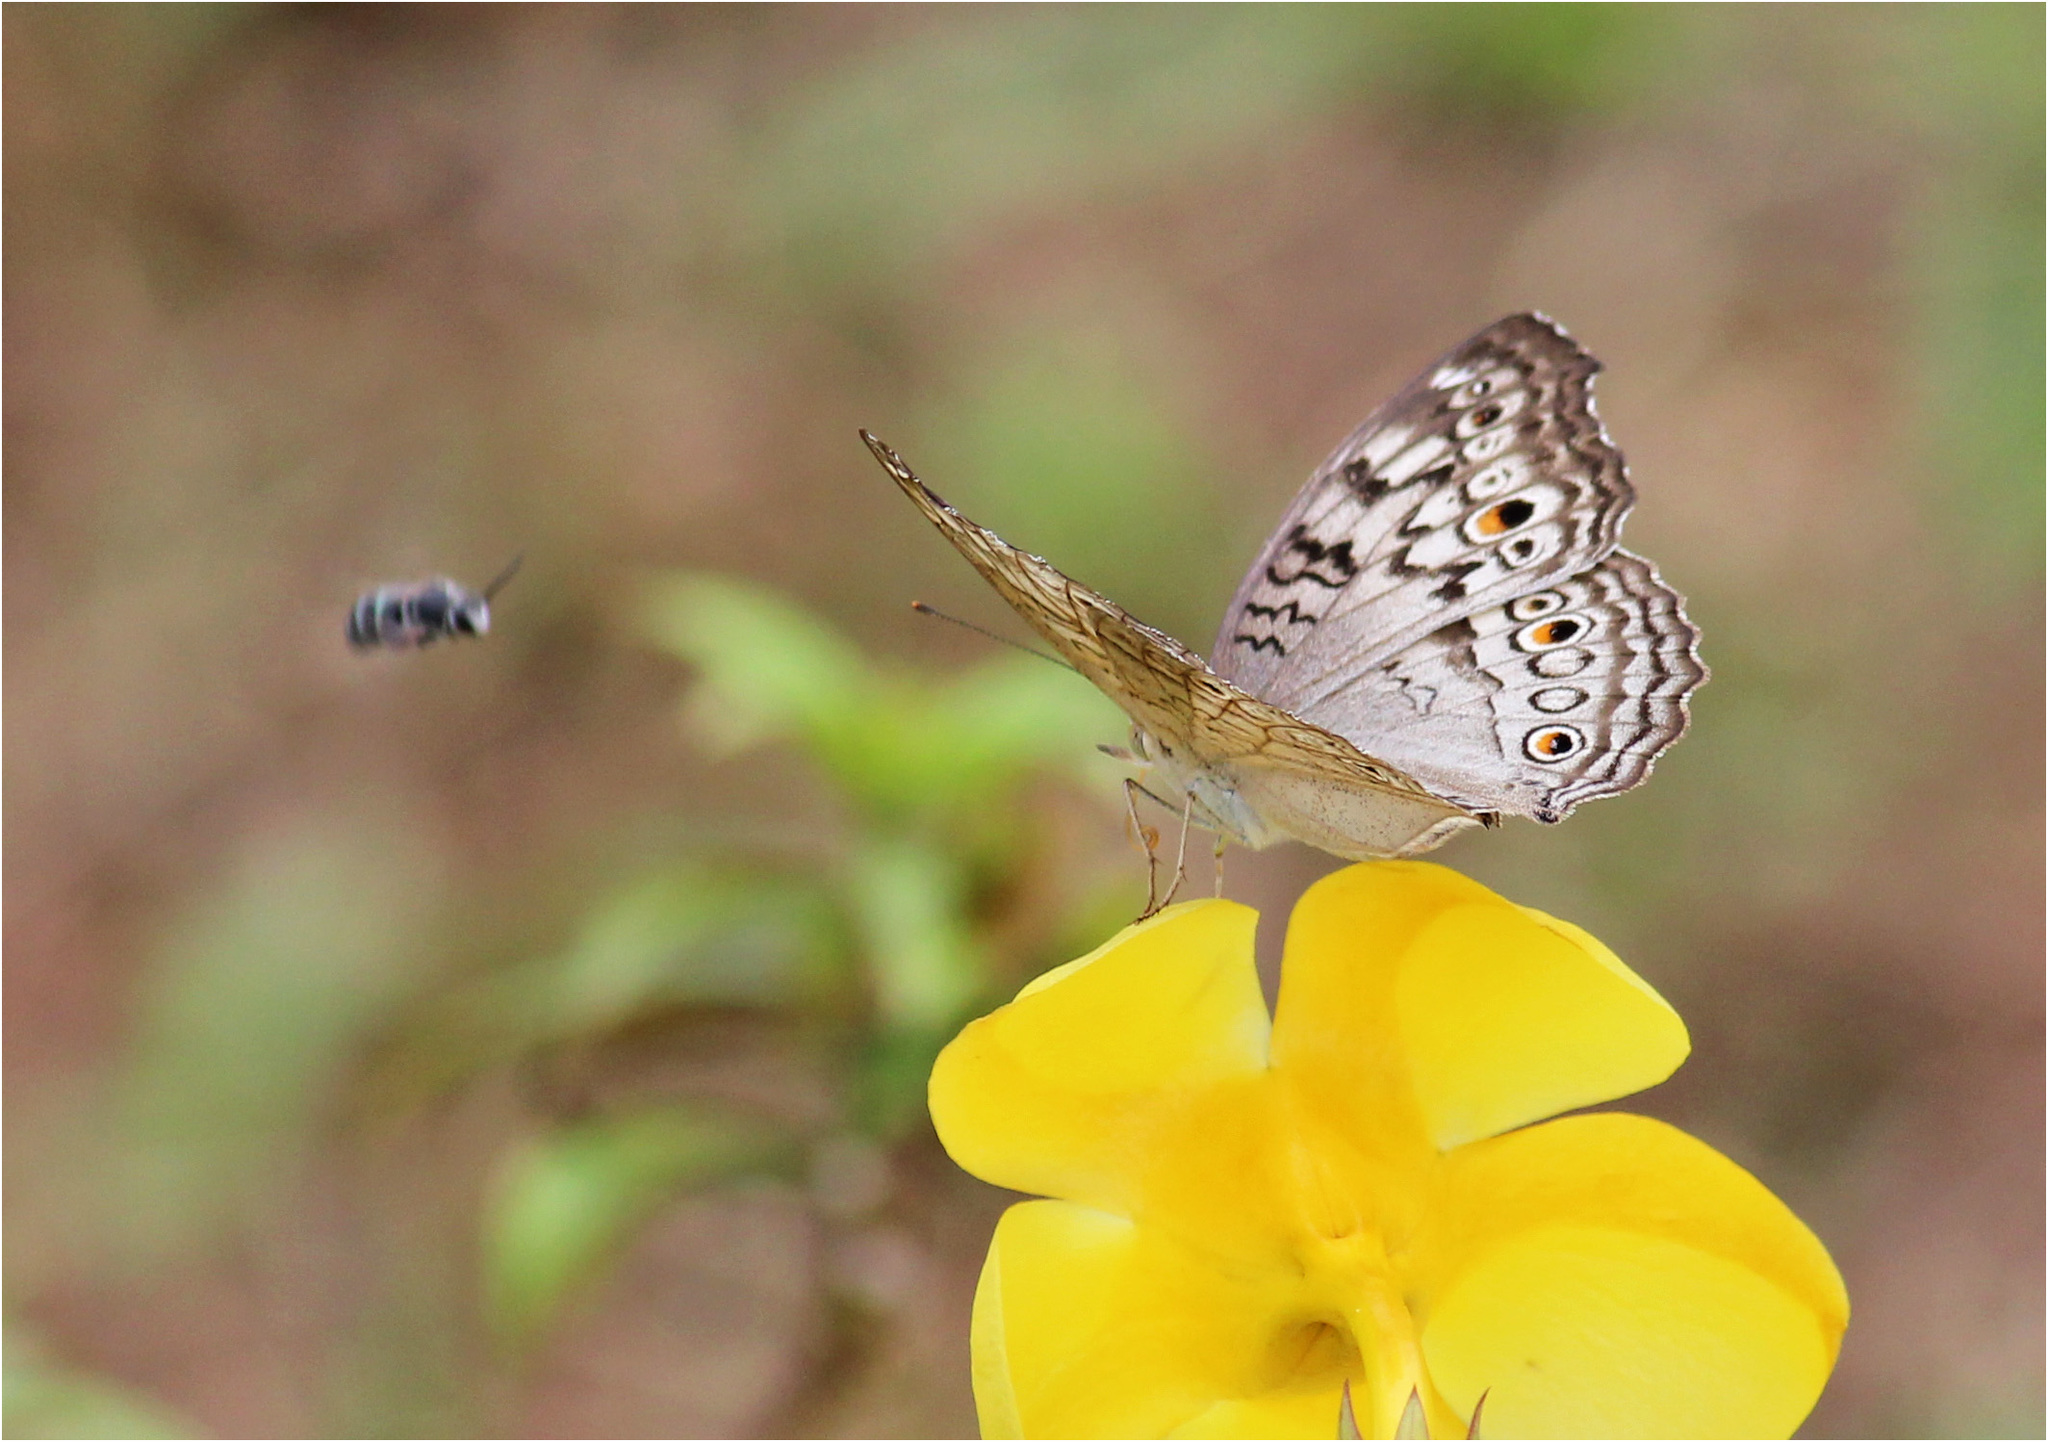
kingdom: Animalia
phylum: Arthropoda
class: Insecta
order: Lepidoptera
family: Nymphalidae
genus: Junonia
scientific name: Junonia atlites
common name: Grey pansy
